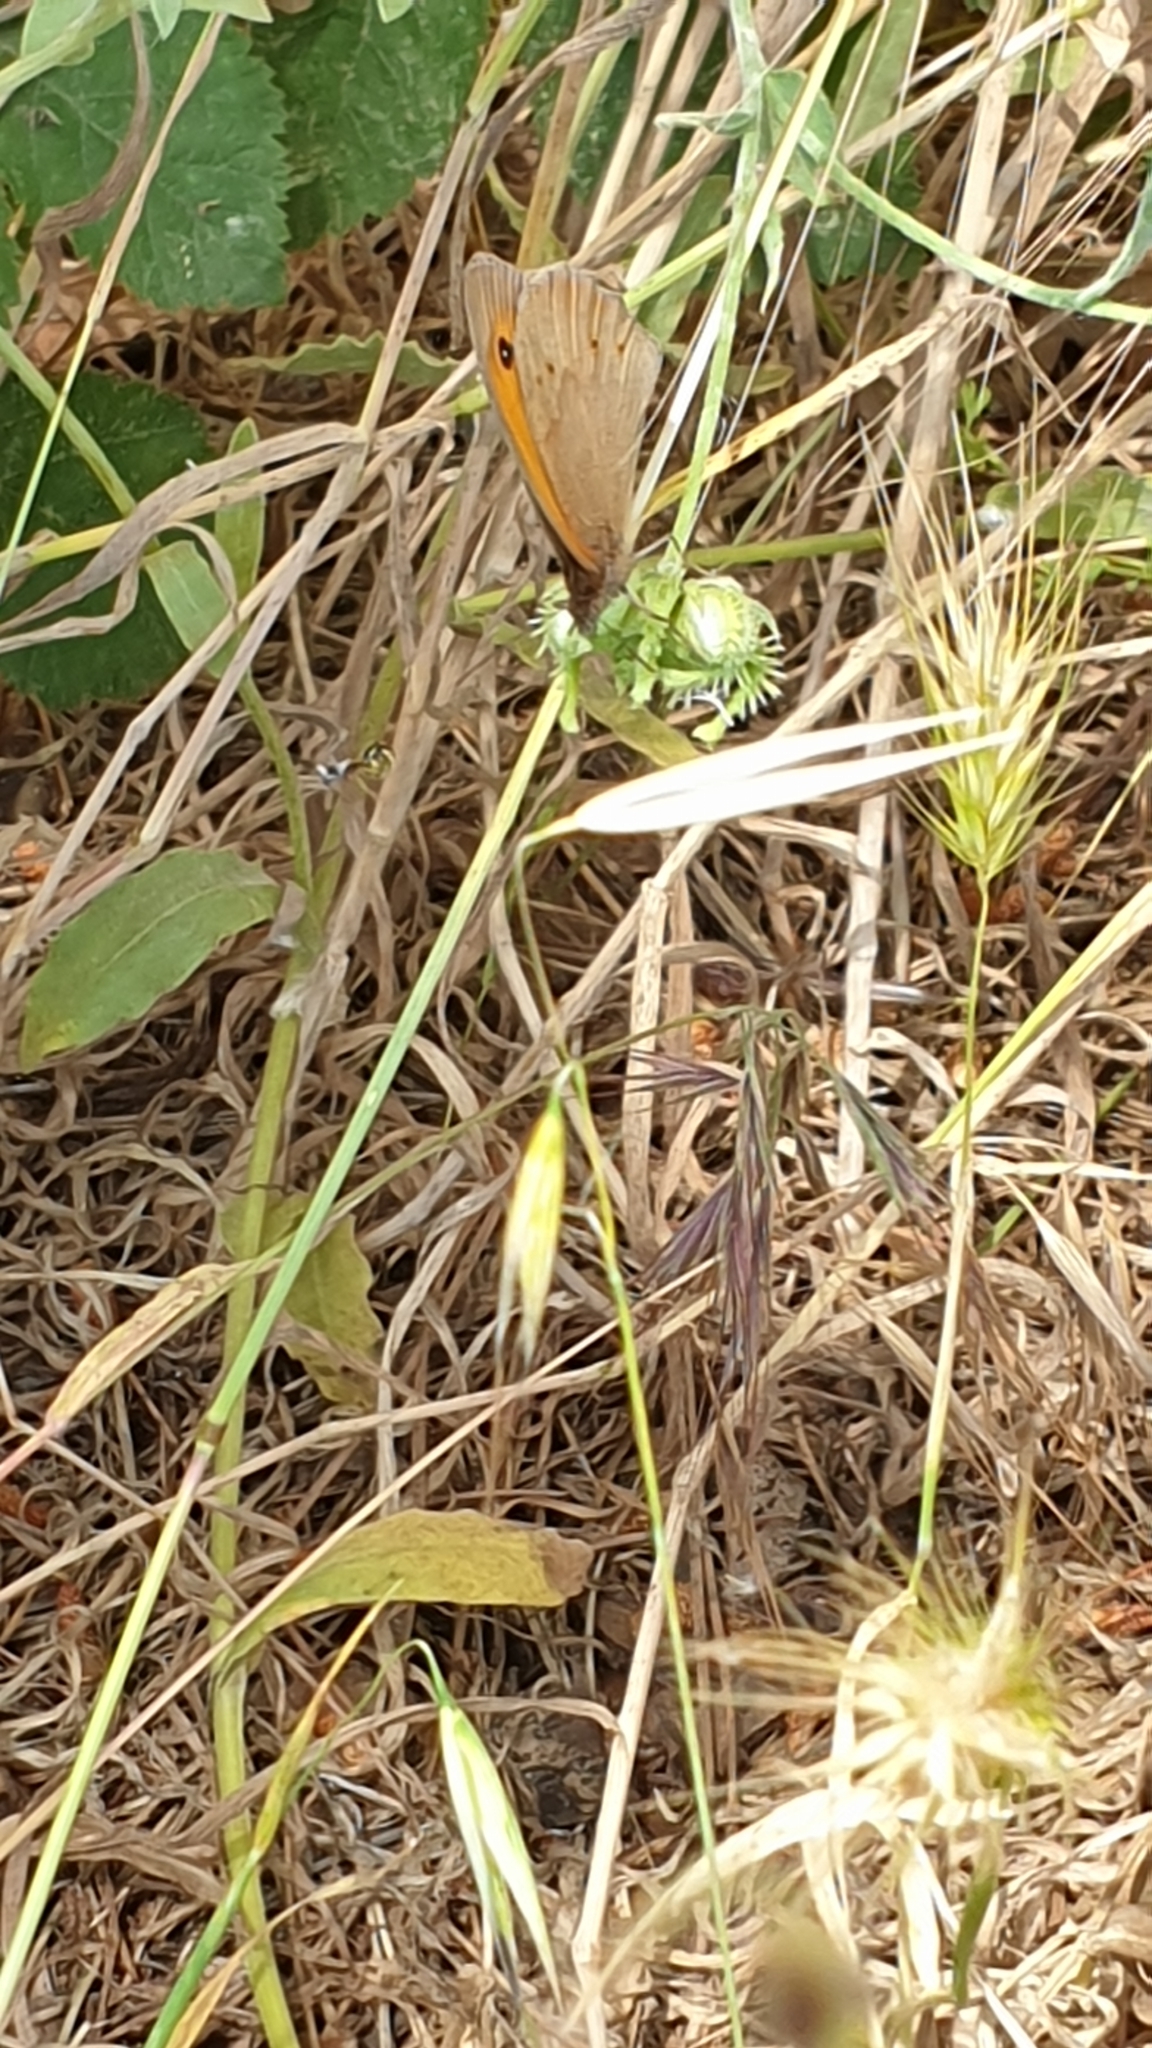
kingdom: Animalia
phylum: Arthropoda
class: Insecta
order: Lepidoptera
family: Nymphalidae
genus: Maniola
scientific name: Maniola jurtina
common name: Meadow brown
